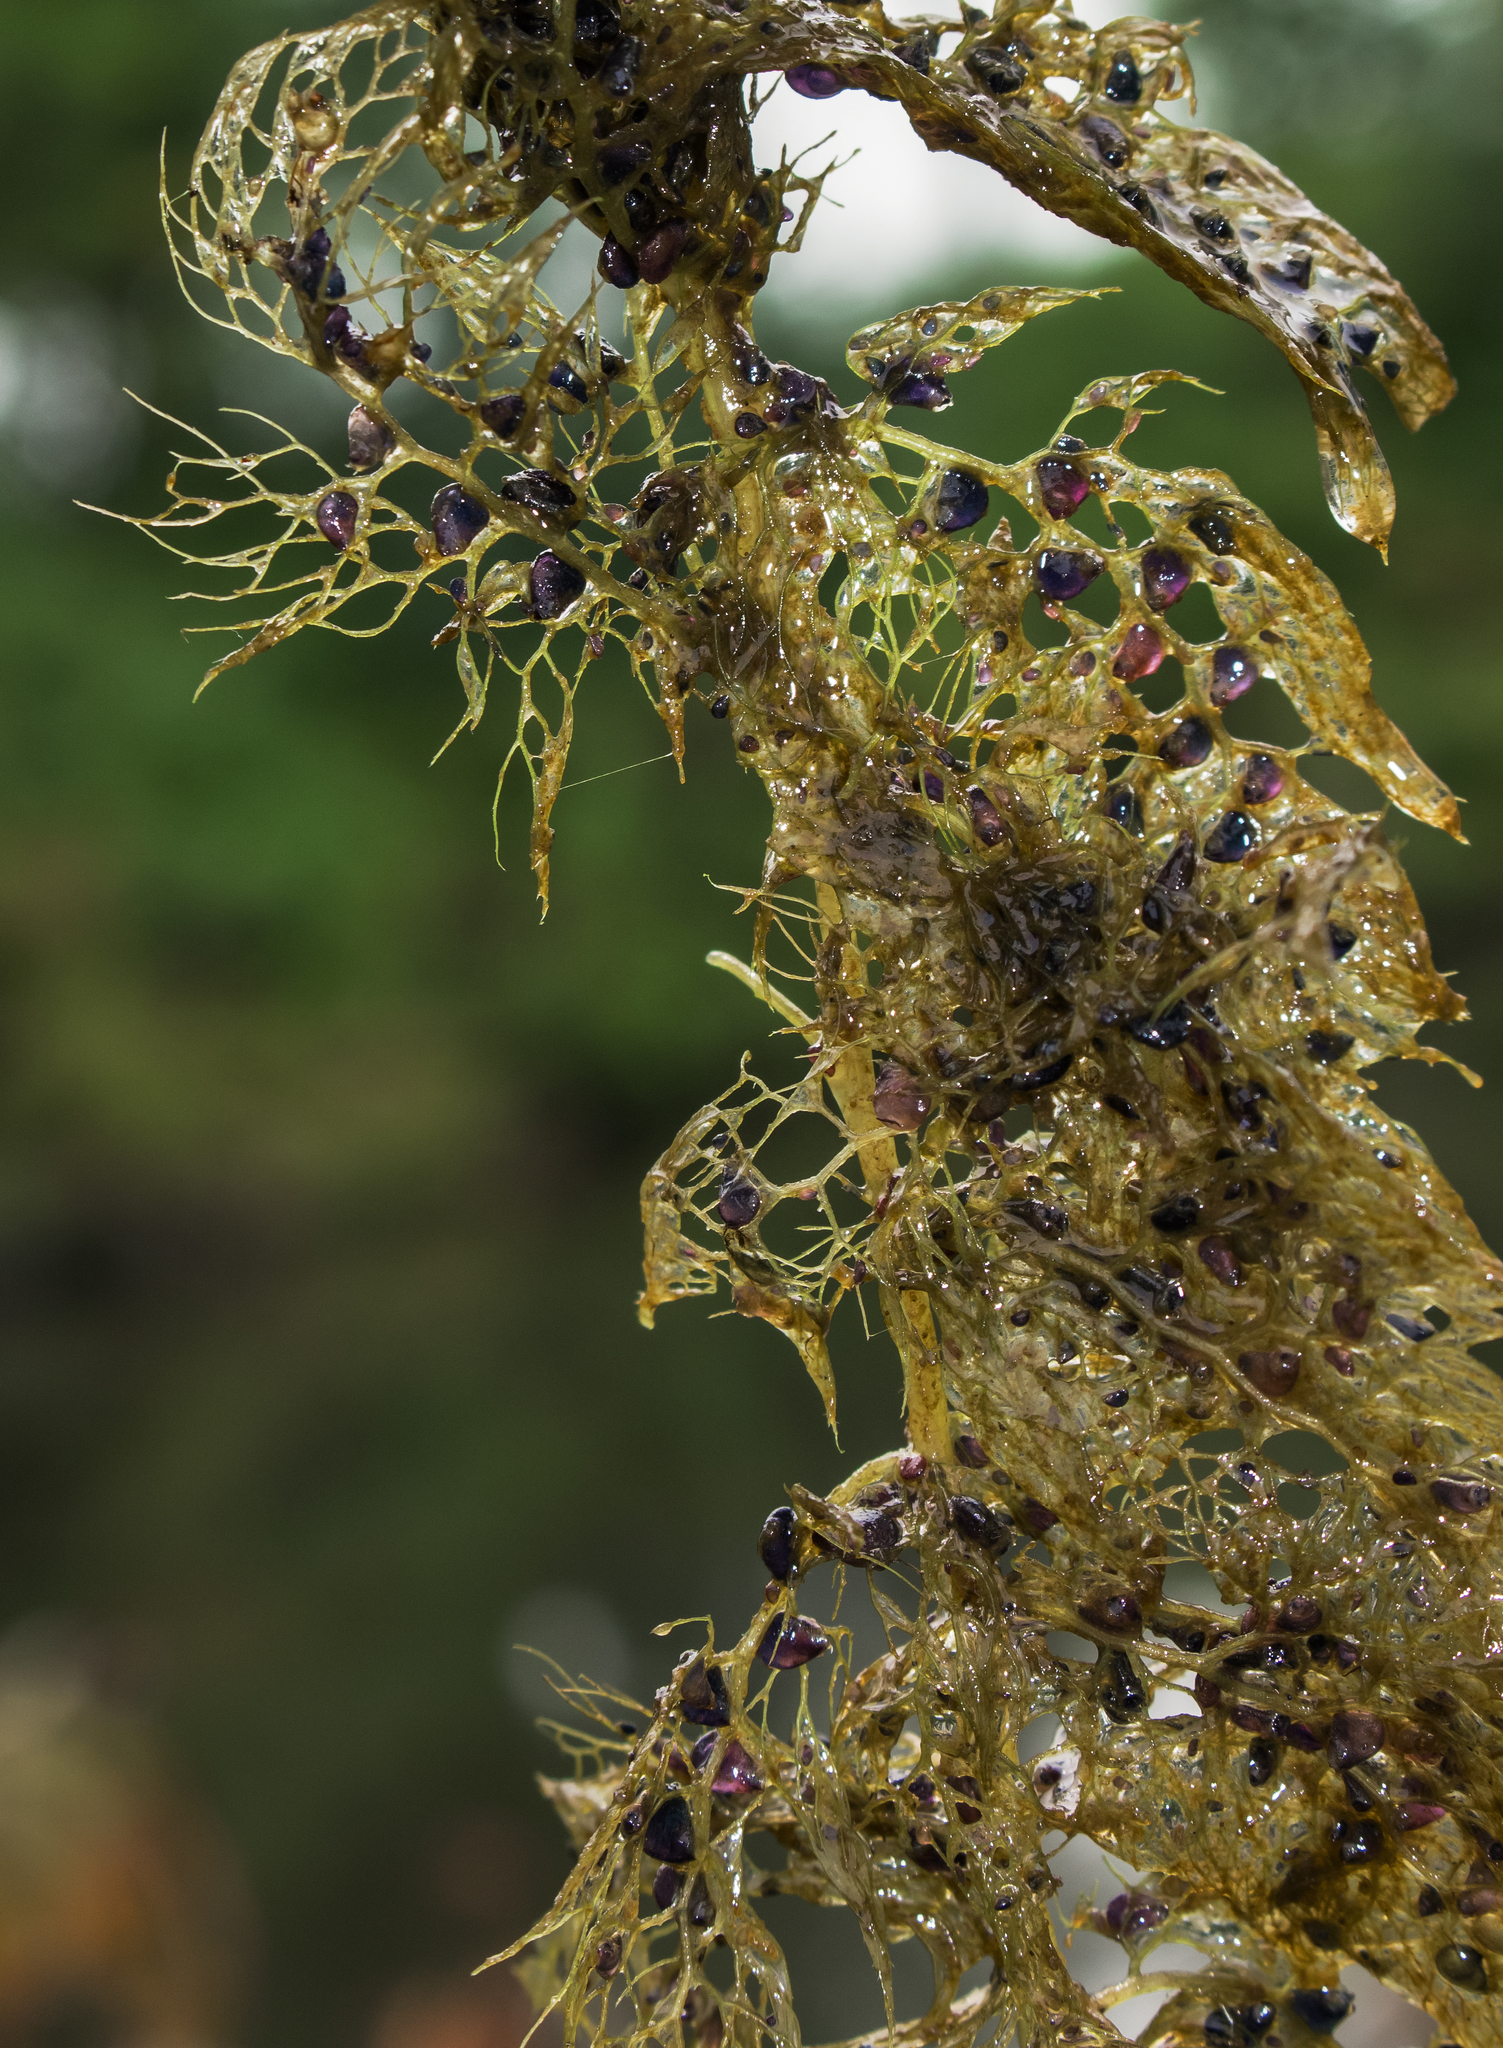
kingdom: Plantae
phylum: Tracheophyta
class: Magnoliopsida
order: Lamiales
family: Lentibulariaceae
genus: Utricularia
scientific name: Utricularia macrorhiza
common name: Common bladderwort
